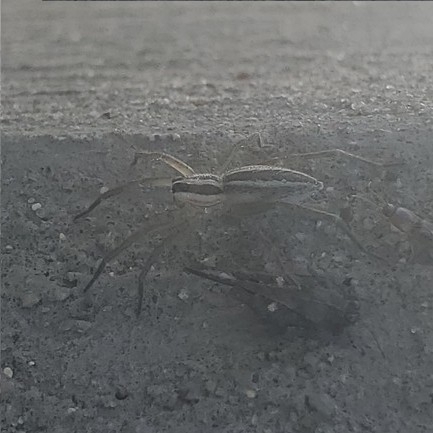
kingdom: Animalia
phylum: Arthropoda
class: Arachnida
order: Araneae
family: Lycosidae
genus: Rabidosa
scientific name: Rabidosa rabida
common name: Rabid wolf spider
